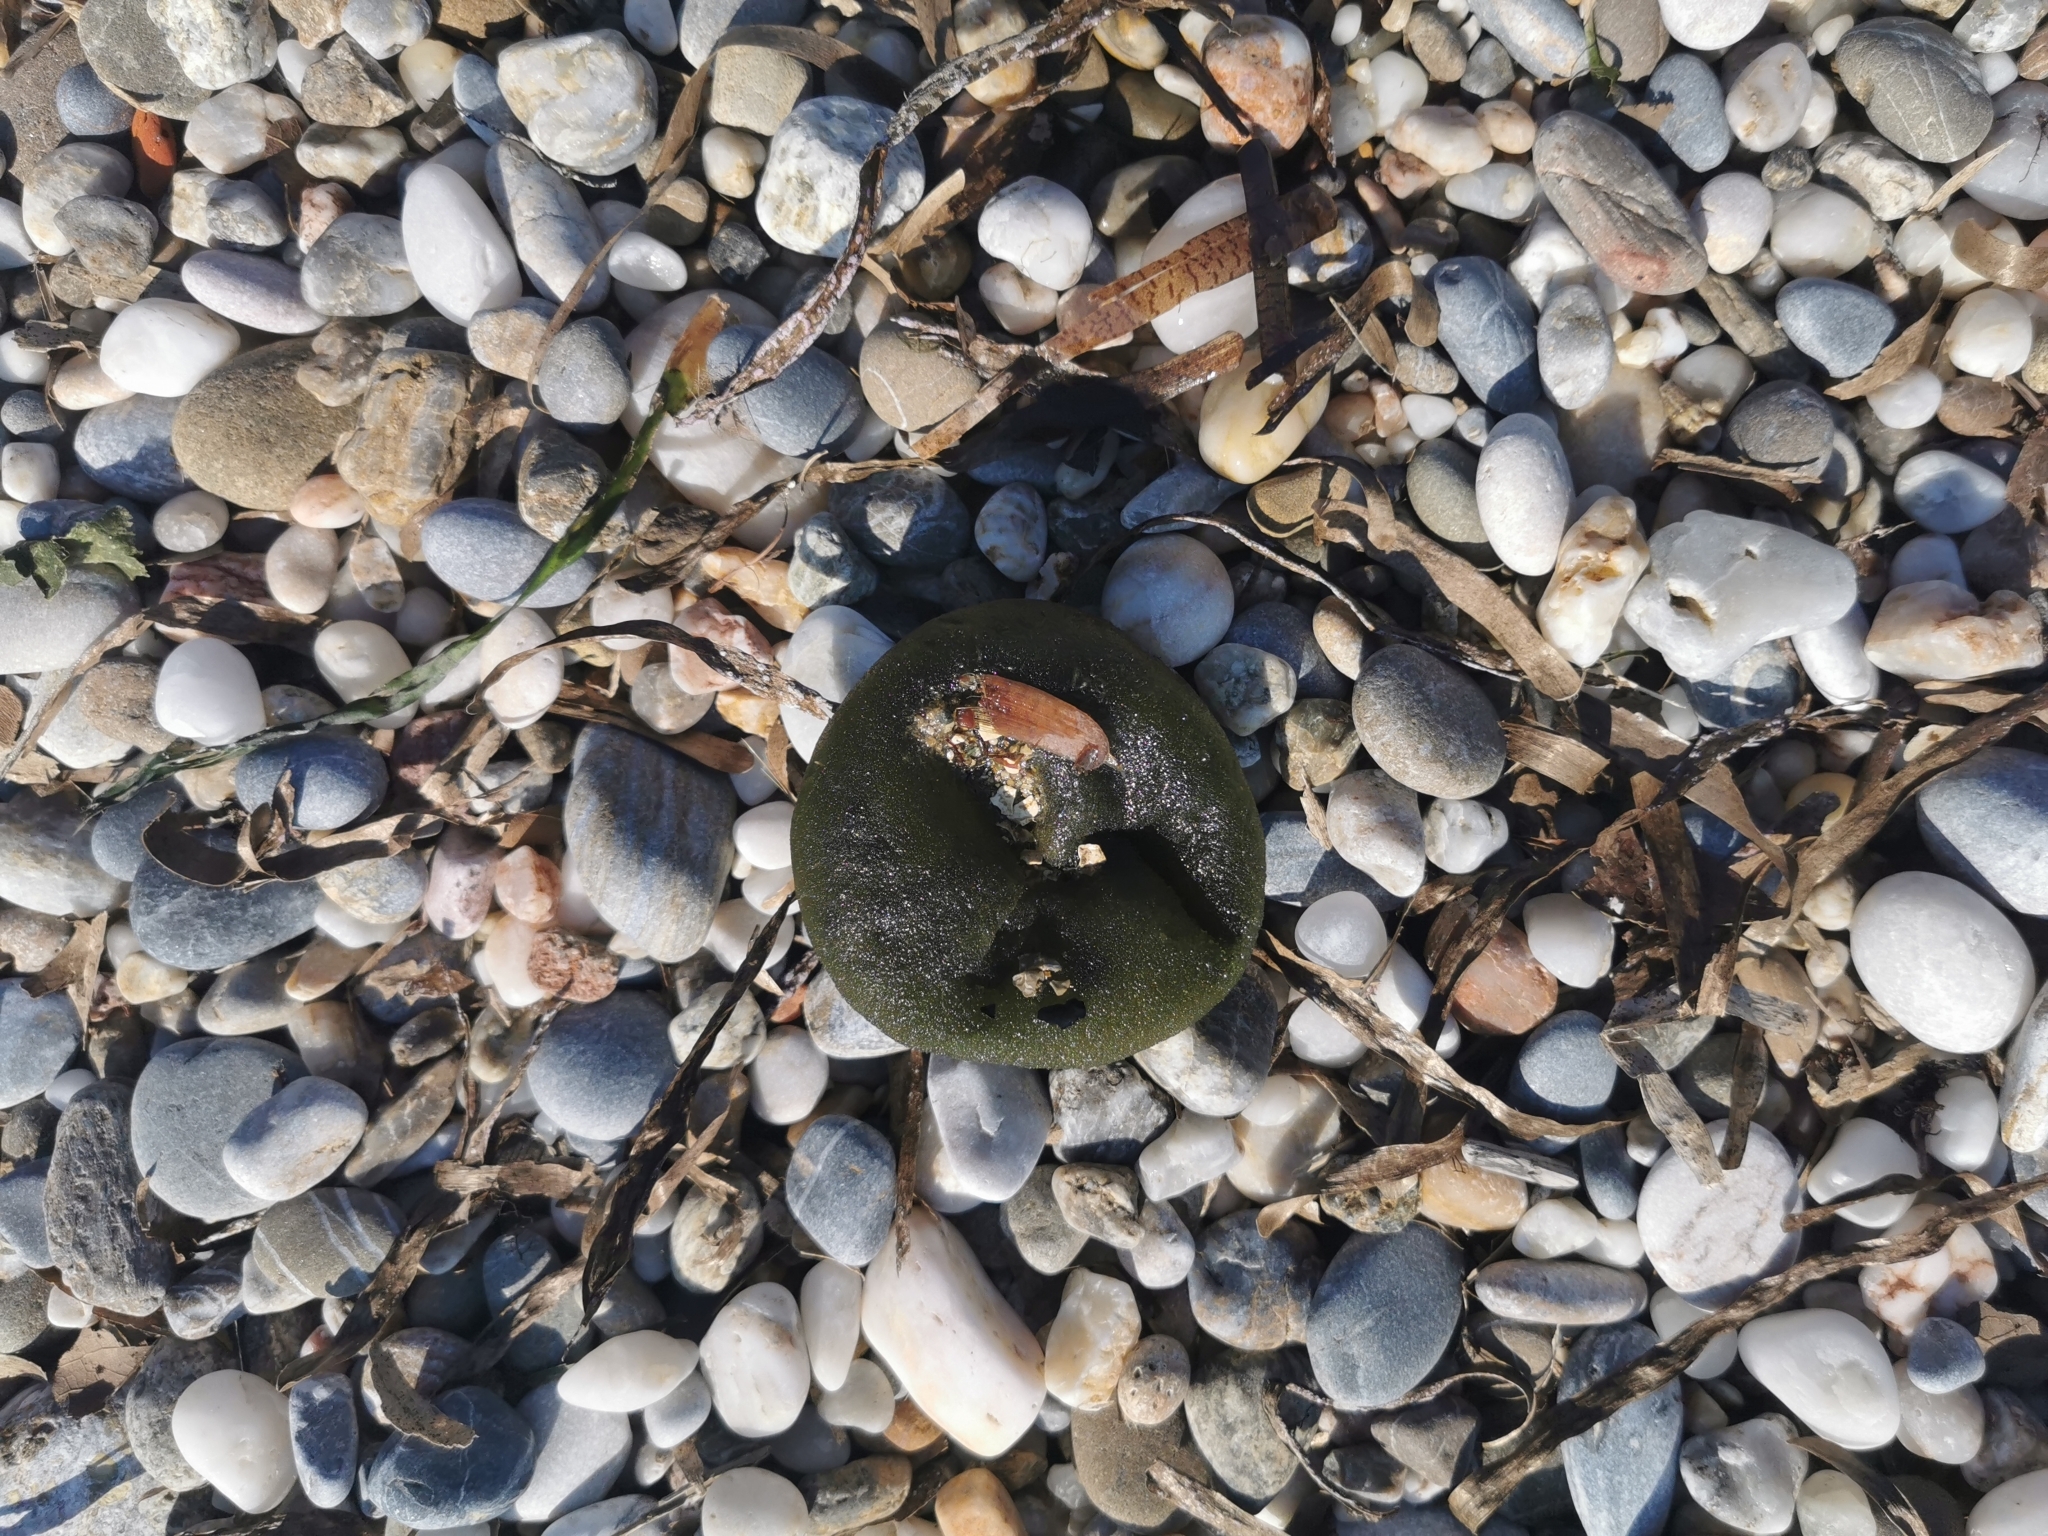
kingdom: Plantae
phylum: Chlorophyta
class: Ulvophyceae
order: Bryopsidales
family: Codiaceae
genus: Codium
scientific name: Codium bursa
